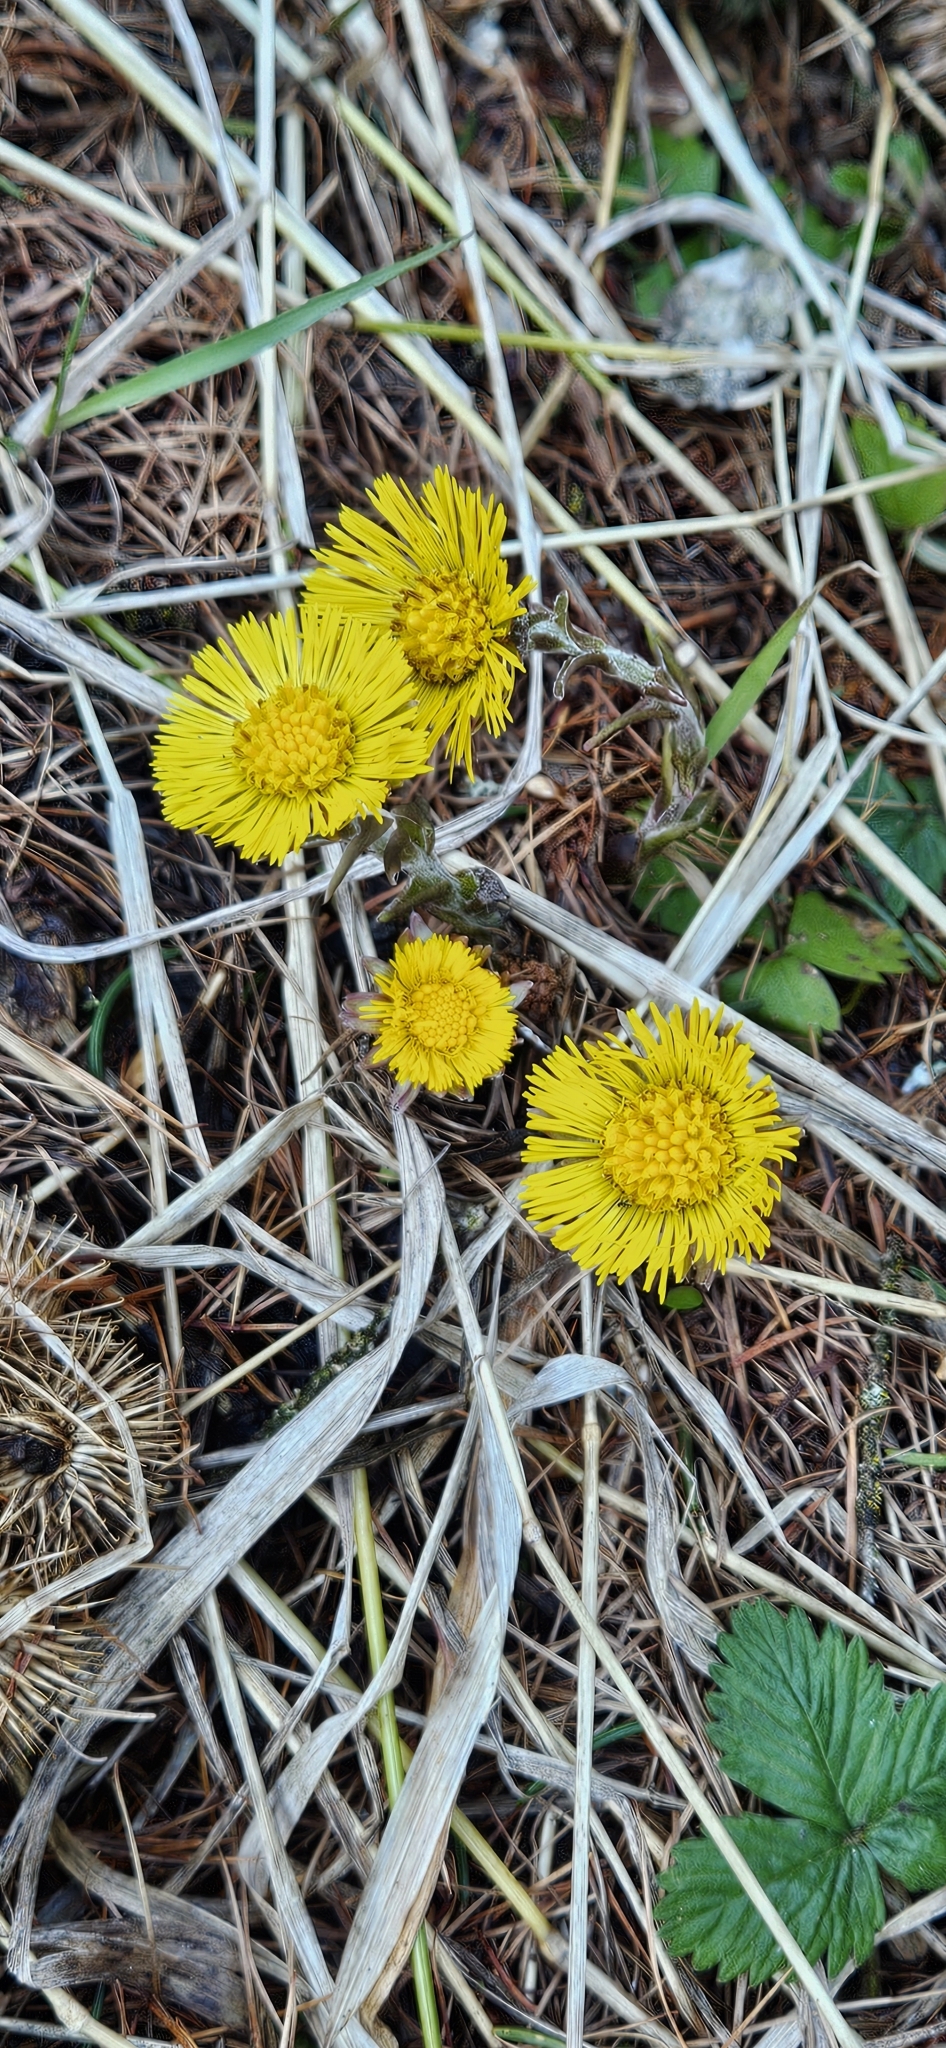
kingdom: Plantae
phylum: Tracheophyta
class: Magnoliopsida
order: Asterales
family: Asteraceae
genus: Tussilago
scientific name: Tussilago farfara
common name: Coltsfoot
